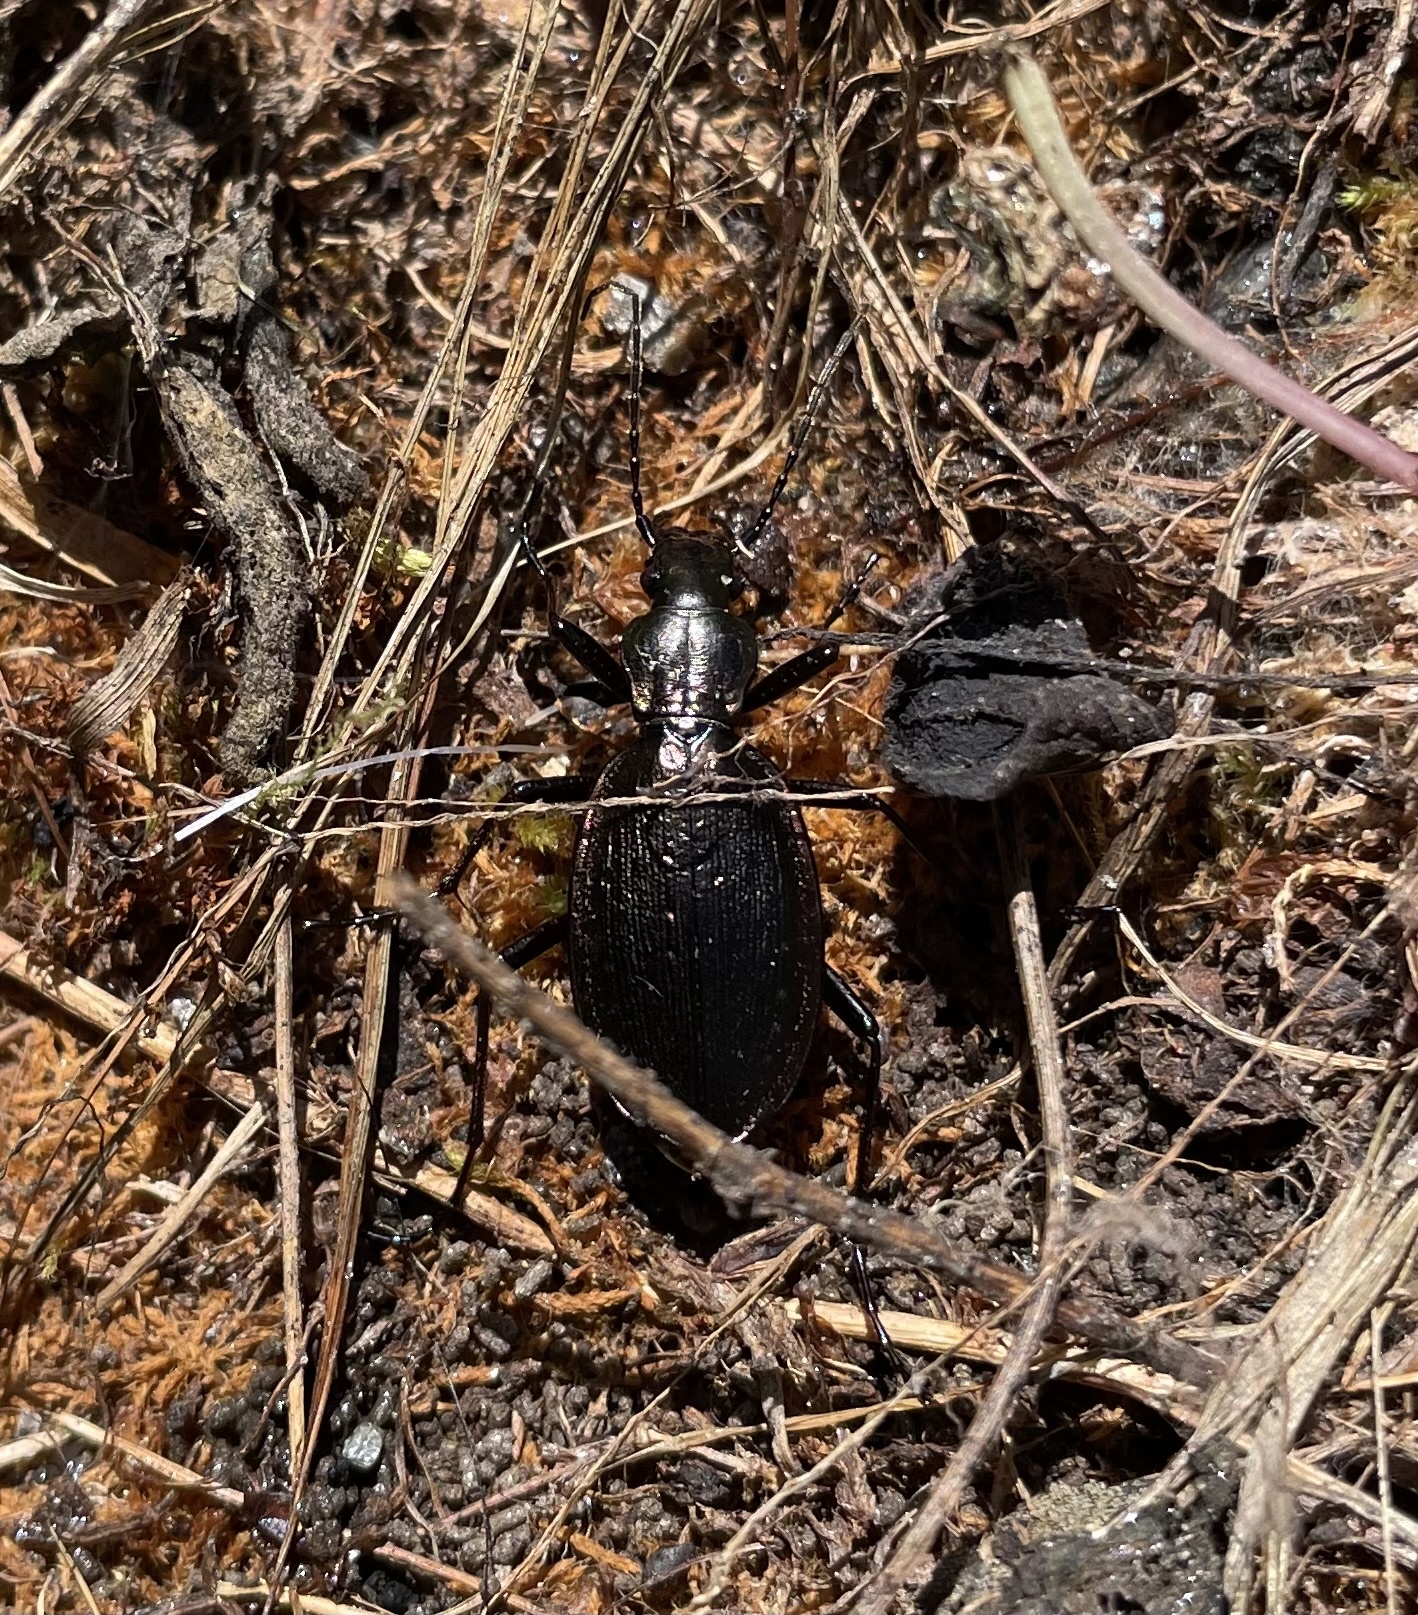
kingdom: Animalia
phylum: Arthropoda
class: Insecta
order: Coleoptera
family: Carabidae
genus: Carabus
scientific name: Carabus depressus
